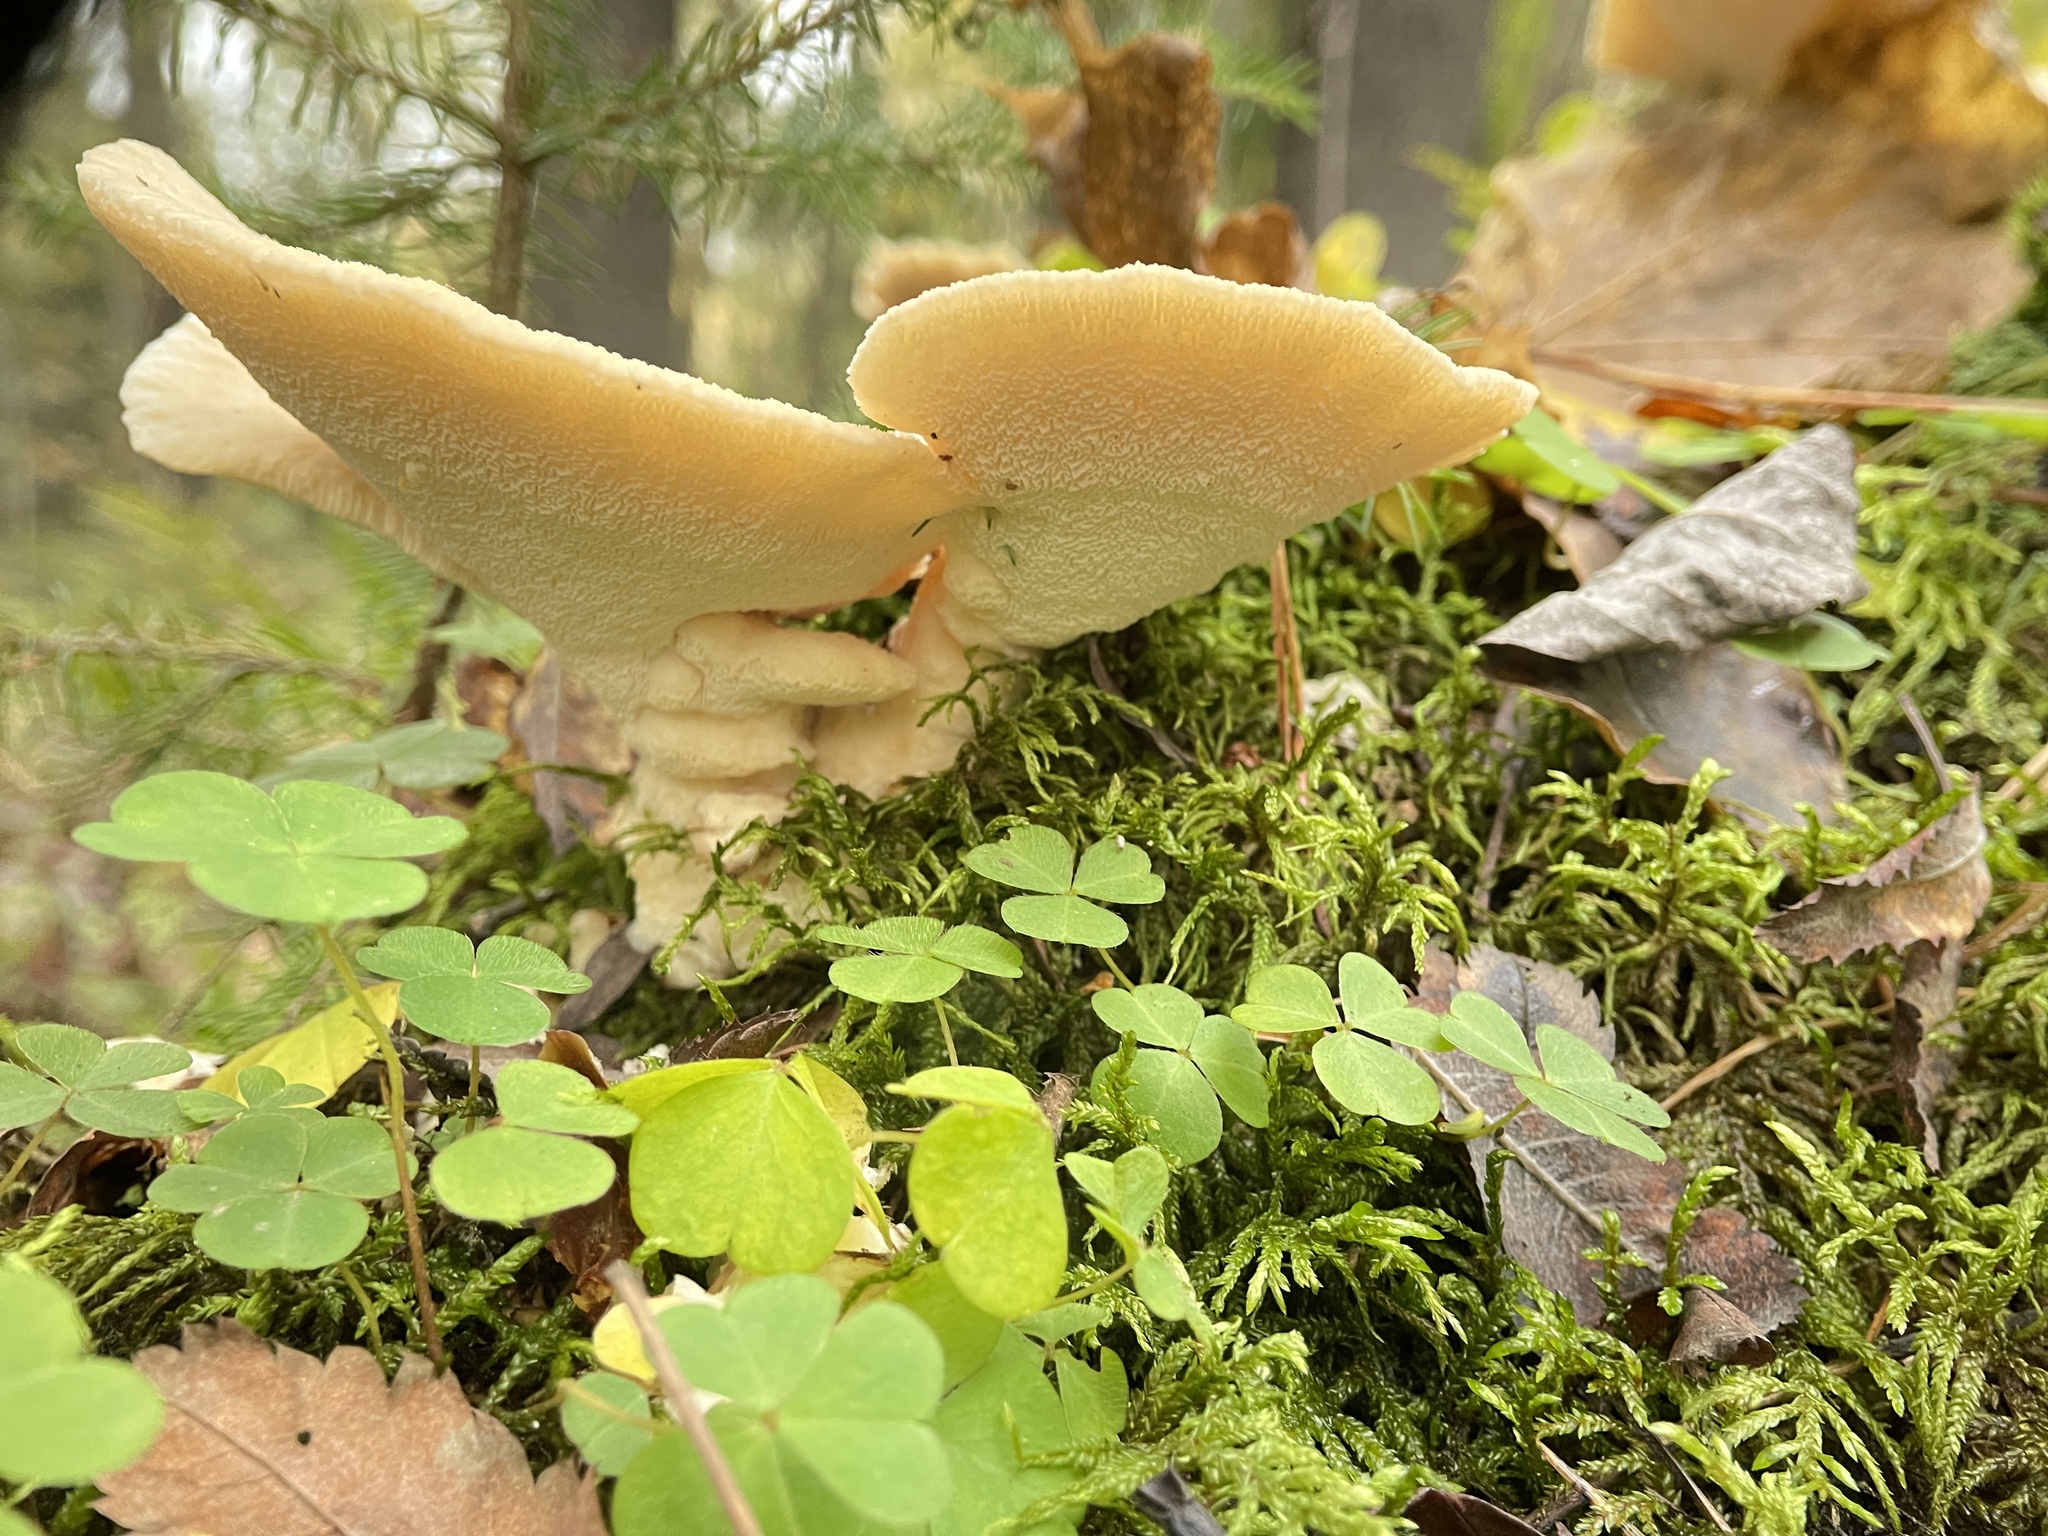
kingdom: Fungi
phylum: Basidiomycota
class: Agaricomycetes
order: Polyporales
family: Fomitopsidaceae
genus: Climacocystis
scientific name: Climacocystis borealis
